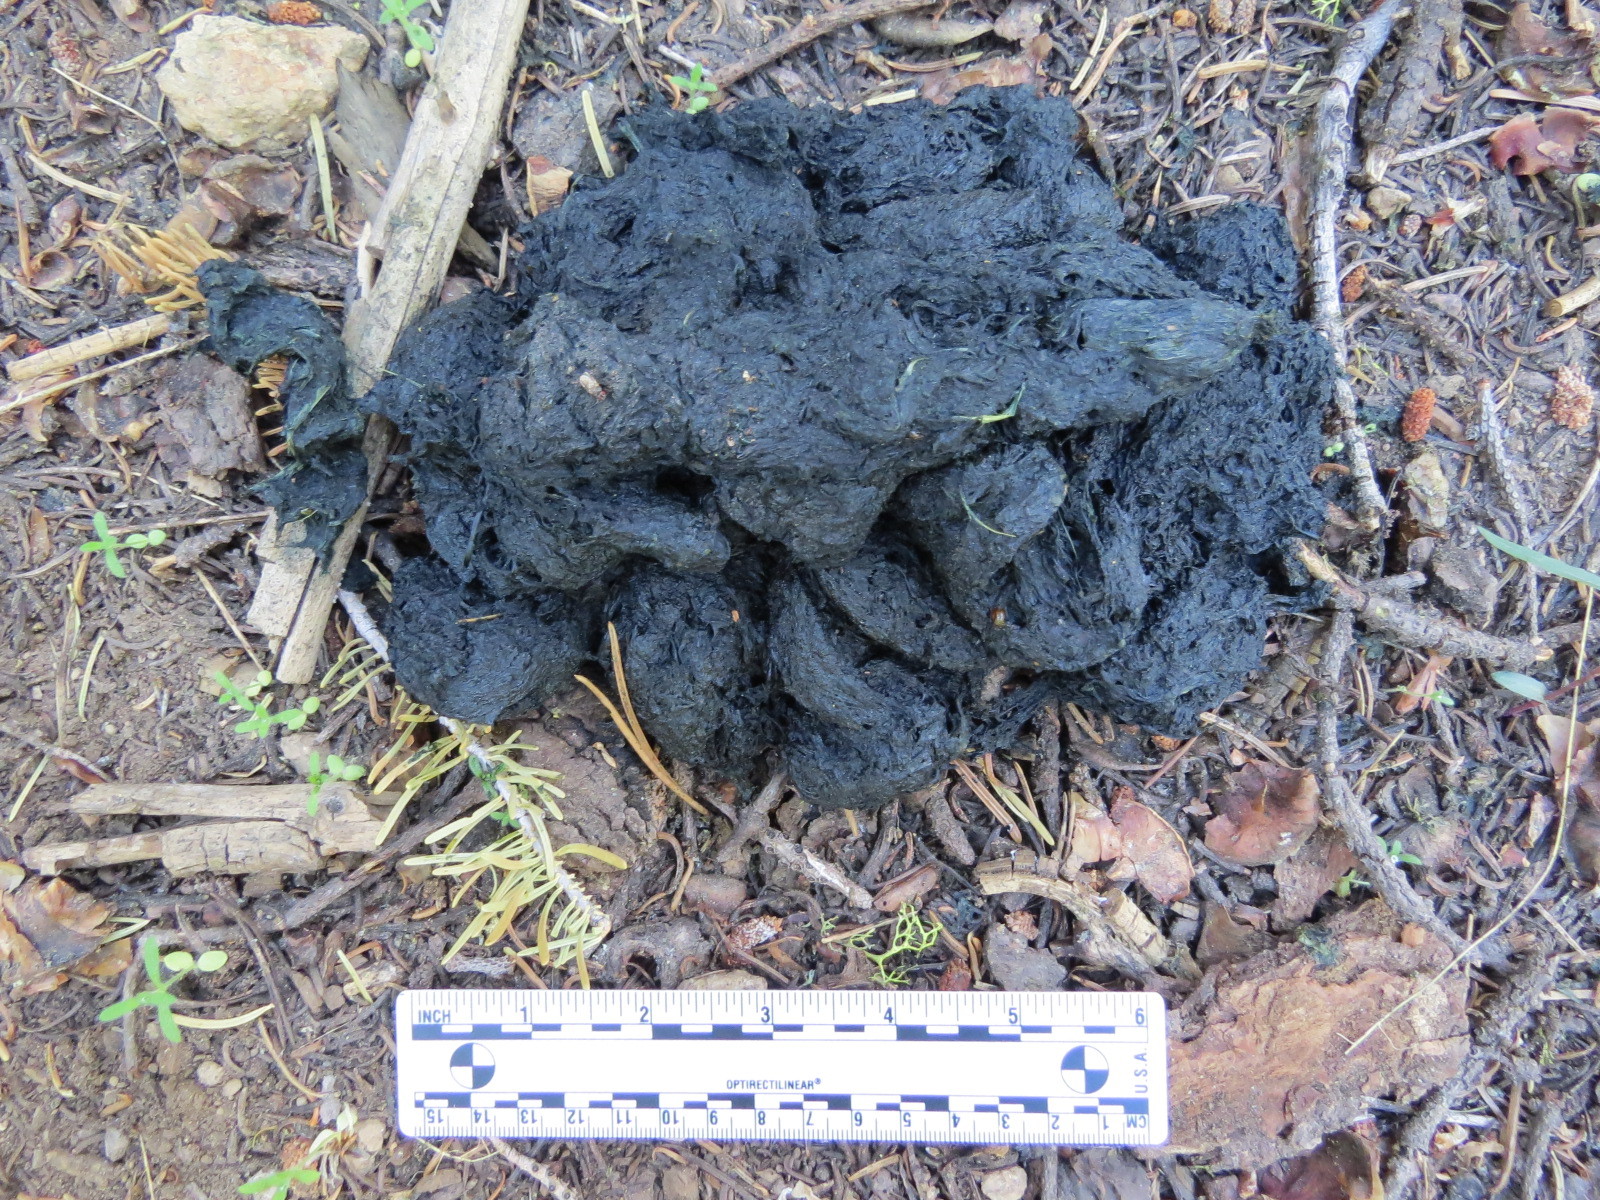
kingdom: Animalia
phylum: Chordata
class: Mammalia
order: Carnivora
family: Ursidae
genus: Ursus
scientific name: Ursus americanus
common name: American black bear
